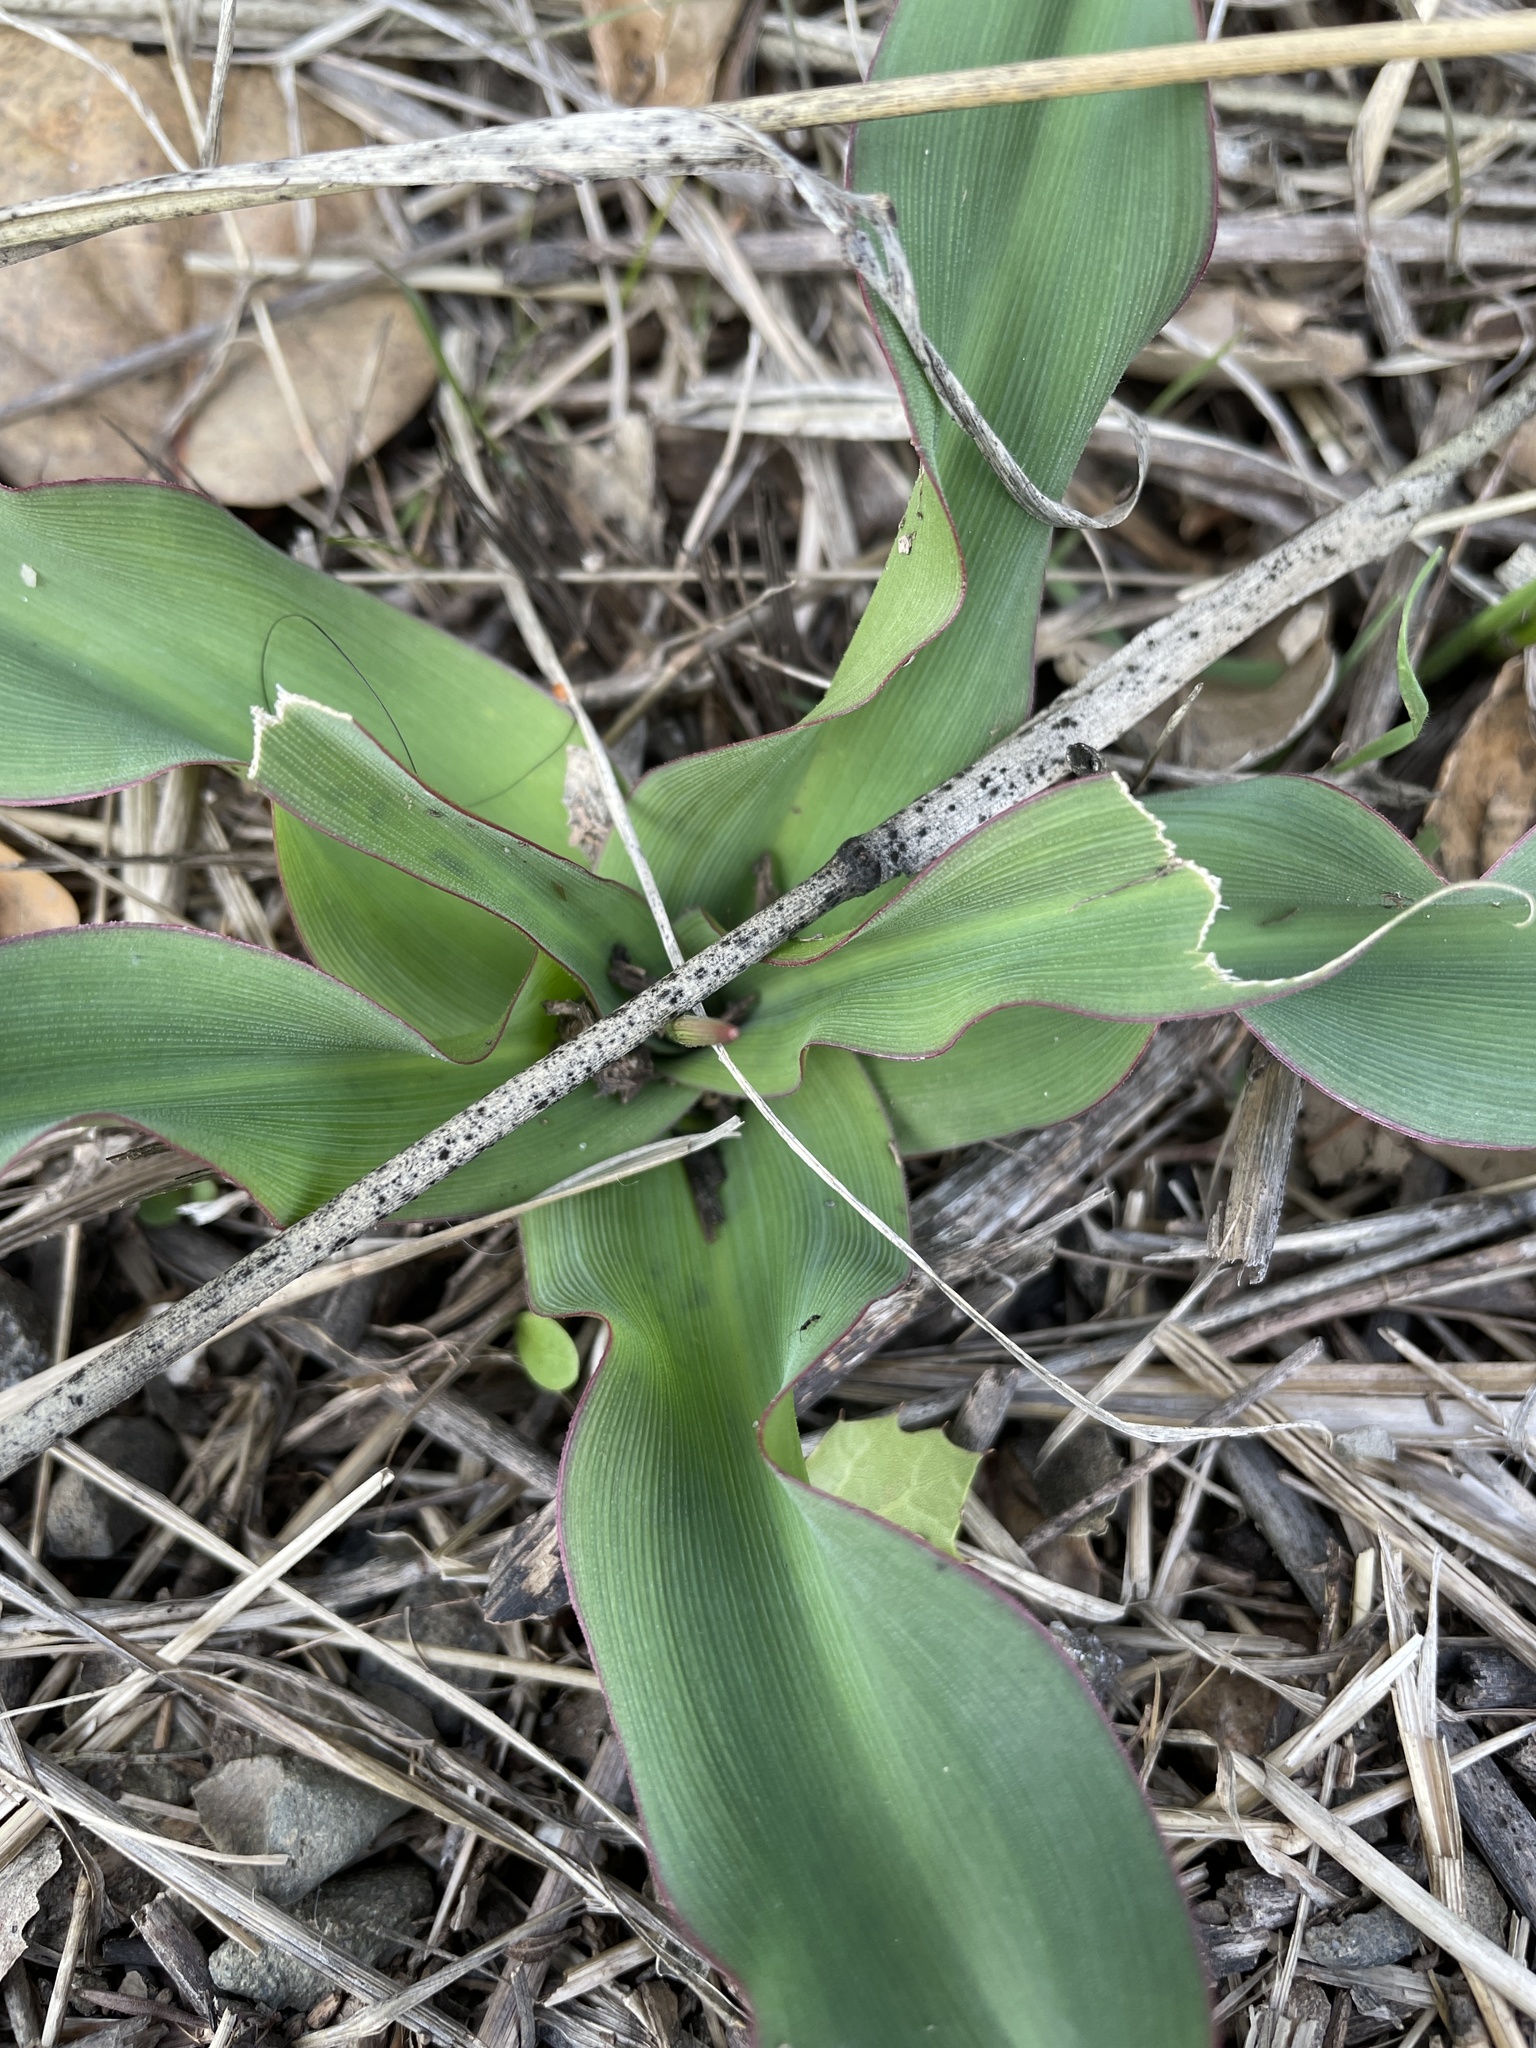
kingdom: Plantae
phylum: Tracheophyta
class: Liliopsida
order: Asparagales
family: Asparagaceae
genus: Chlorogalum
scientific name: Chlorogalum pomeridianum
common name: Amole
